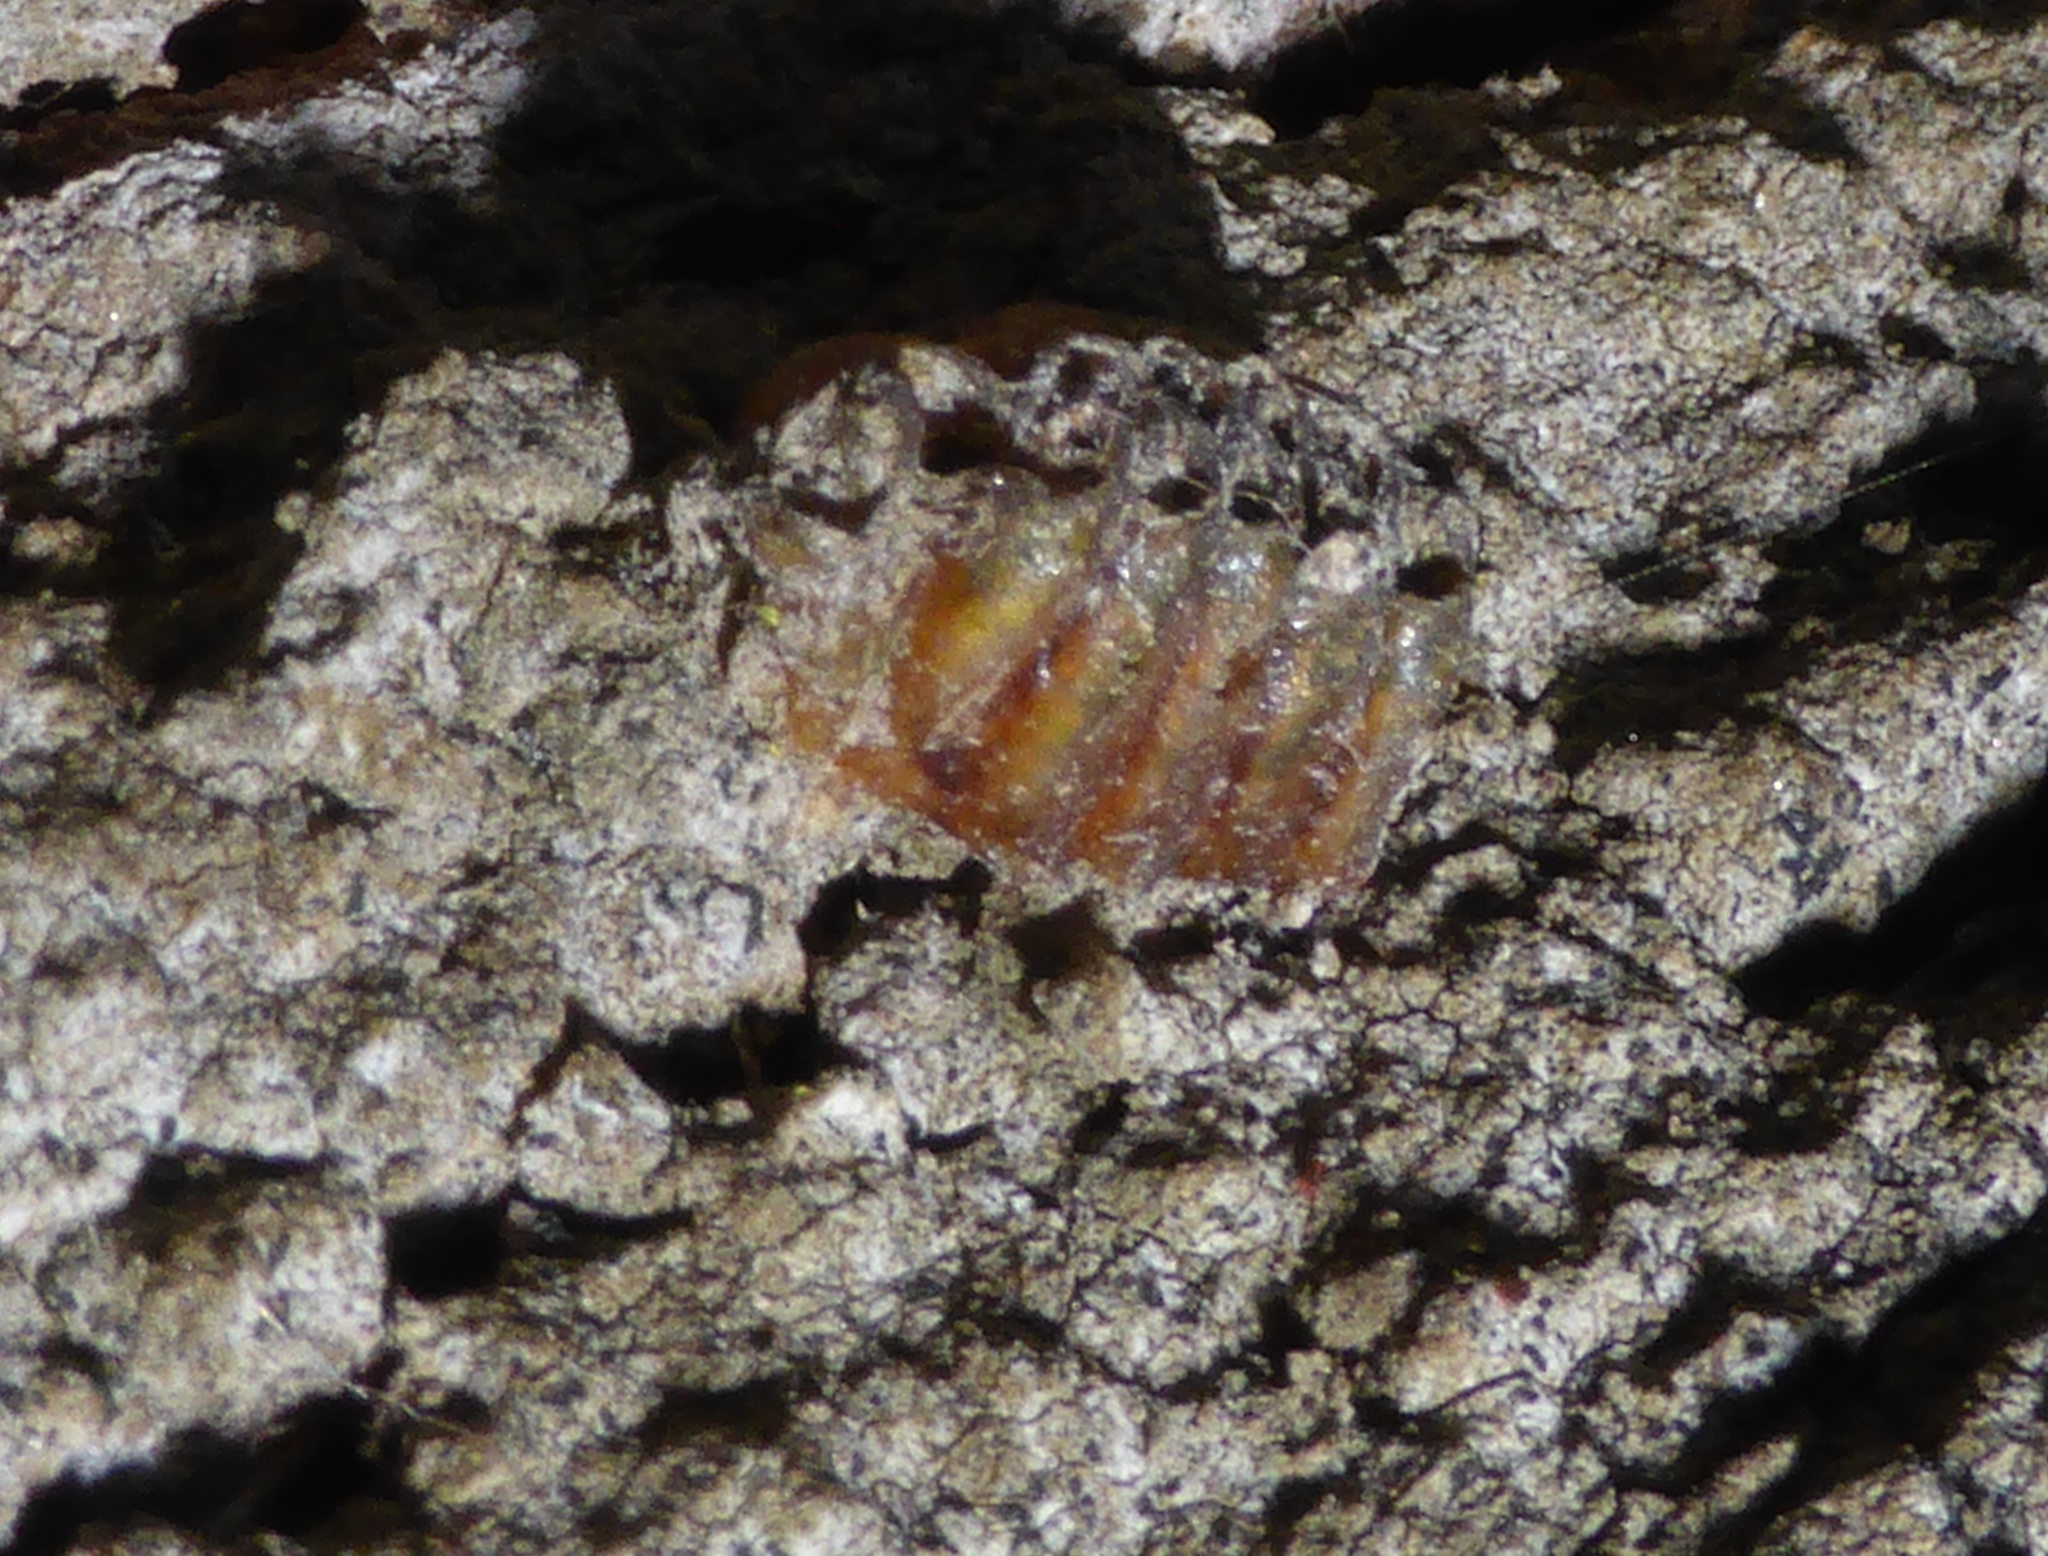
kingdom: Animalia
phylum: Arthropoda
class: Insecta
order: Mantodea
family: Mantidae
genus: Orthodera
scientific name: Orthodera novaezealandiae
